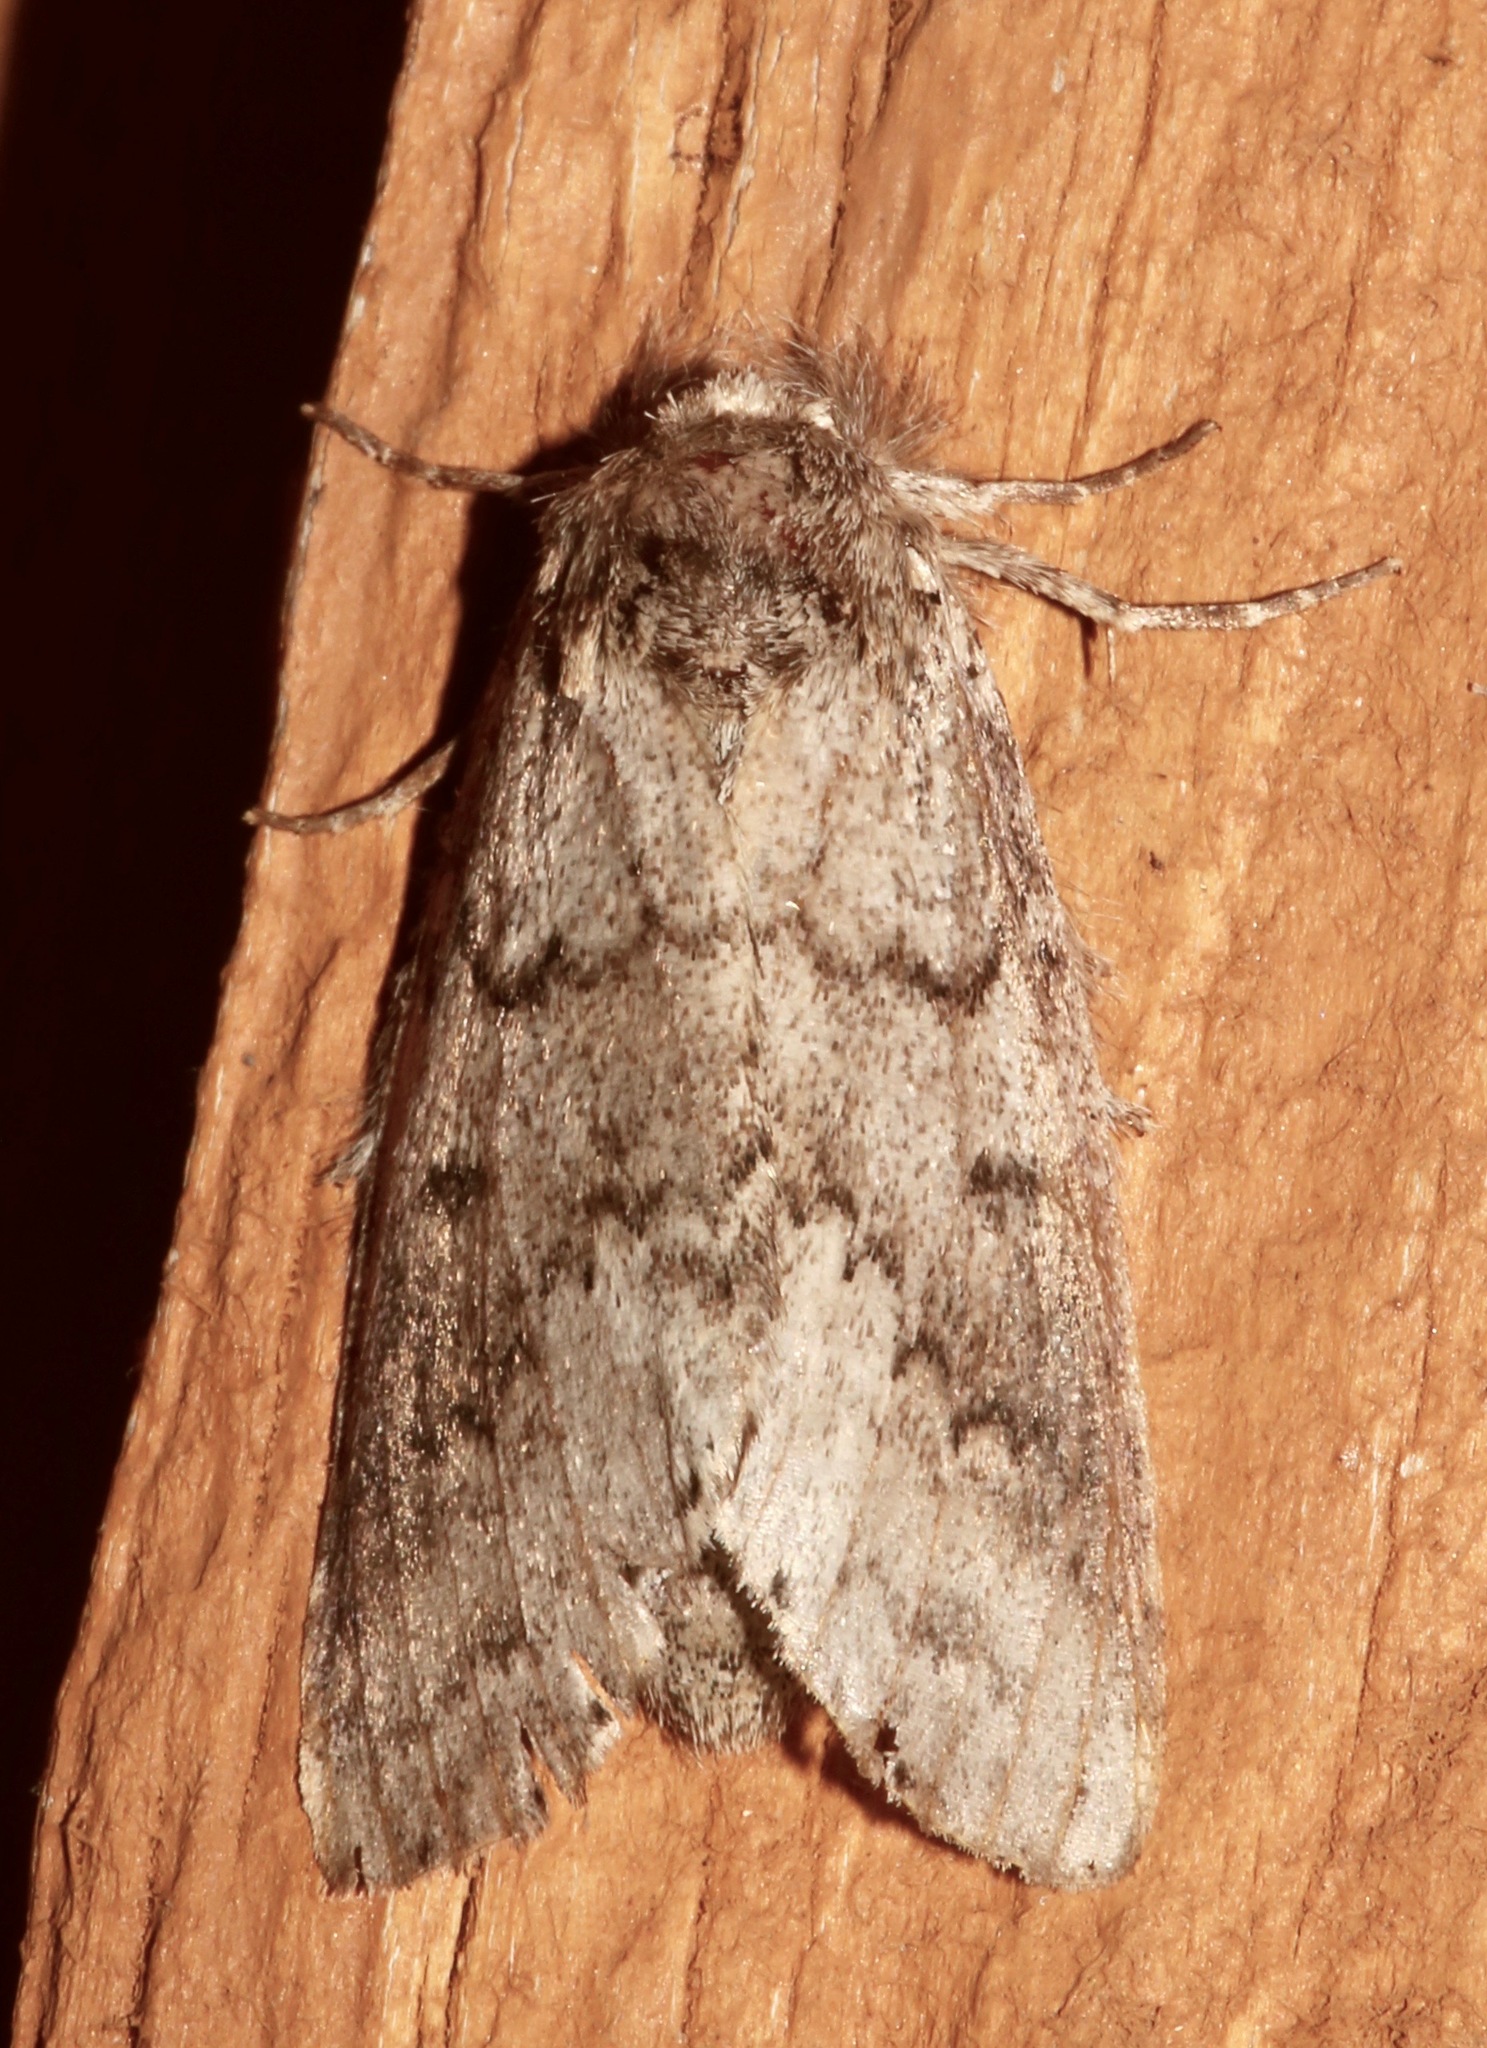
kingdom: Animalia
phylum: Arthropoda
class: Insecta
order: Lepidoptera
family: Notodontidae
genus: Lochmaeus
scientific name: Lochmaeus manteo
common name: Variable oakleaf caterpillar moth
